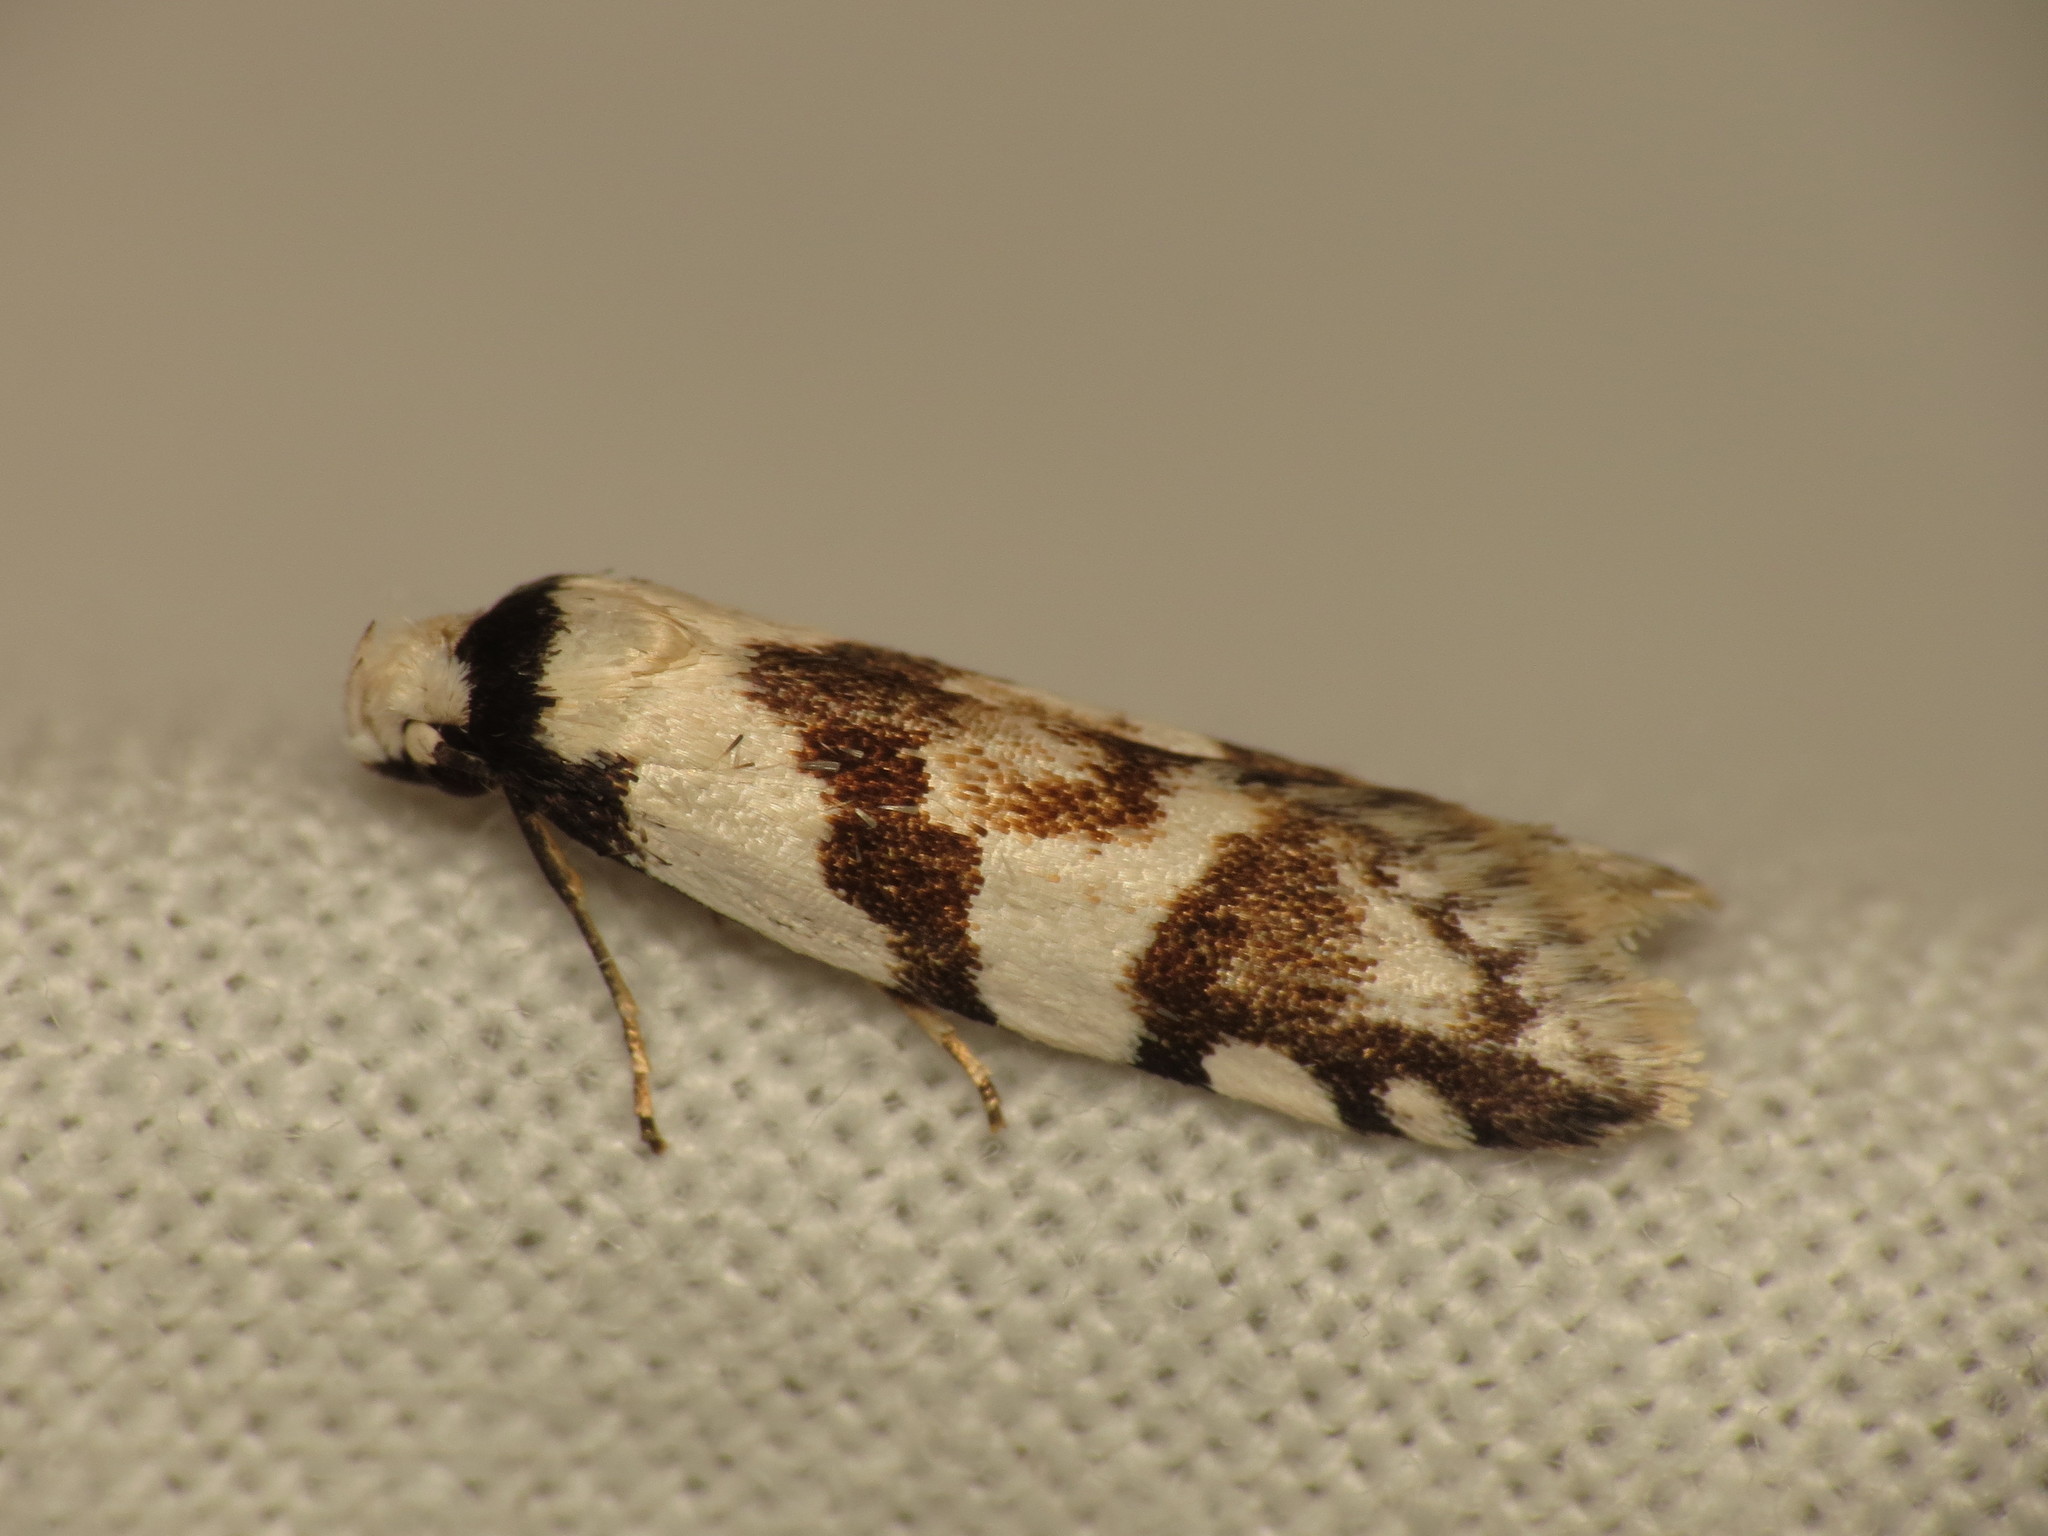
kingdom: Animalia
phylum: Arthropoda
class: Insecta
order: Lepidoptera
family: Oecophoridae
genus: Oxythecta
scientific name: Oxythecta alternella
